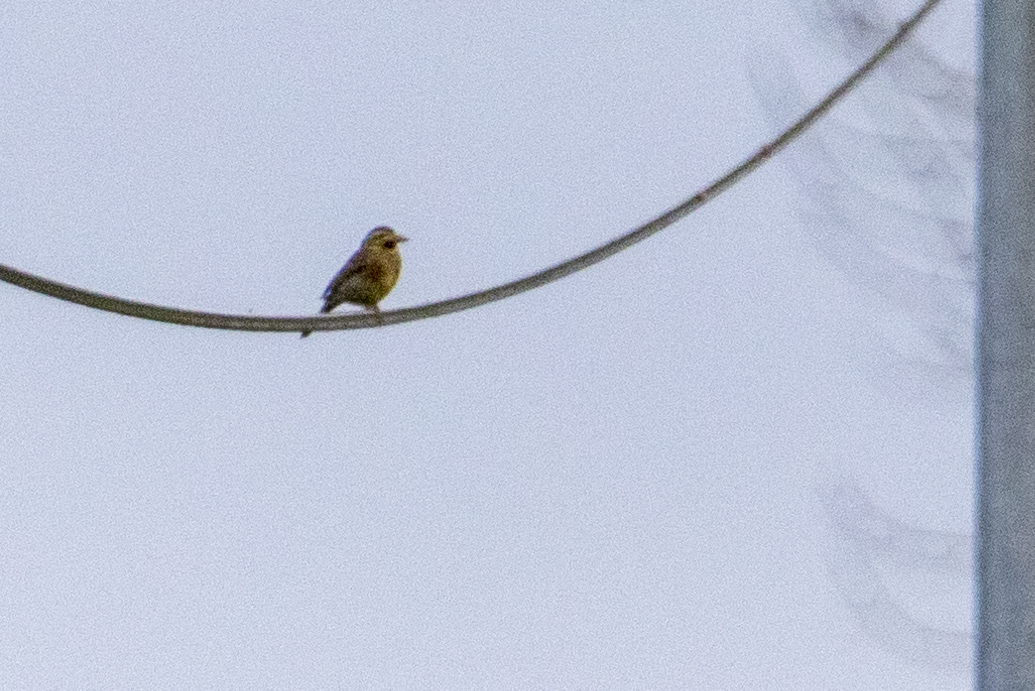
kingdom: Animalia
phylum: Chordata
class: Aves
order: Passeriformes
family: Emberizidae
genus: Emberiza
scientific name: Emberiza cirlus
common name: Cirl bunting
